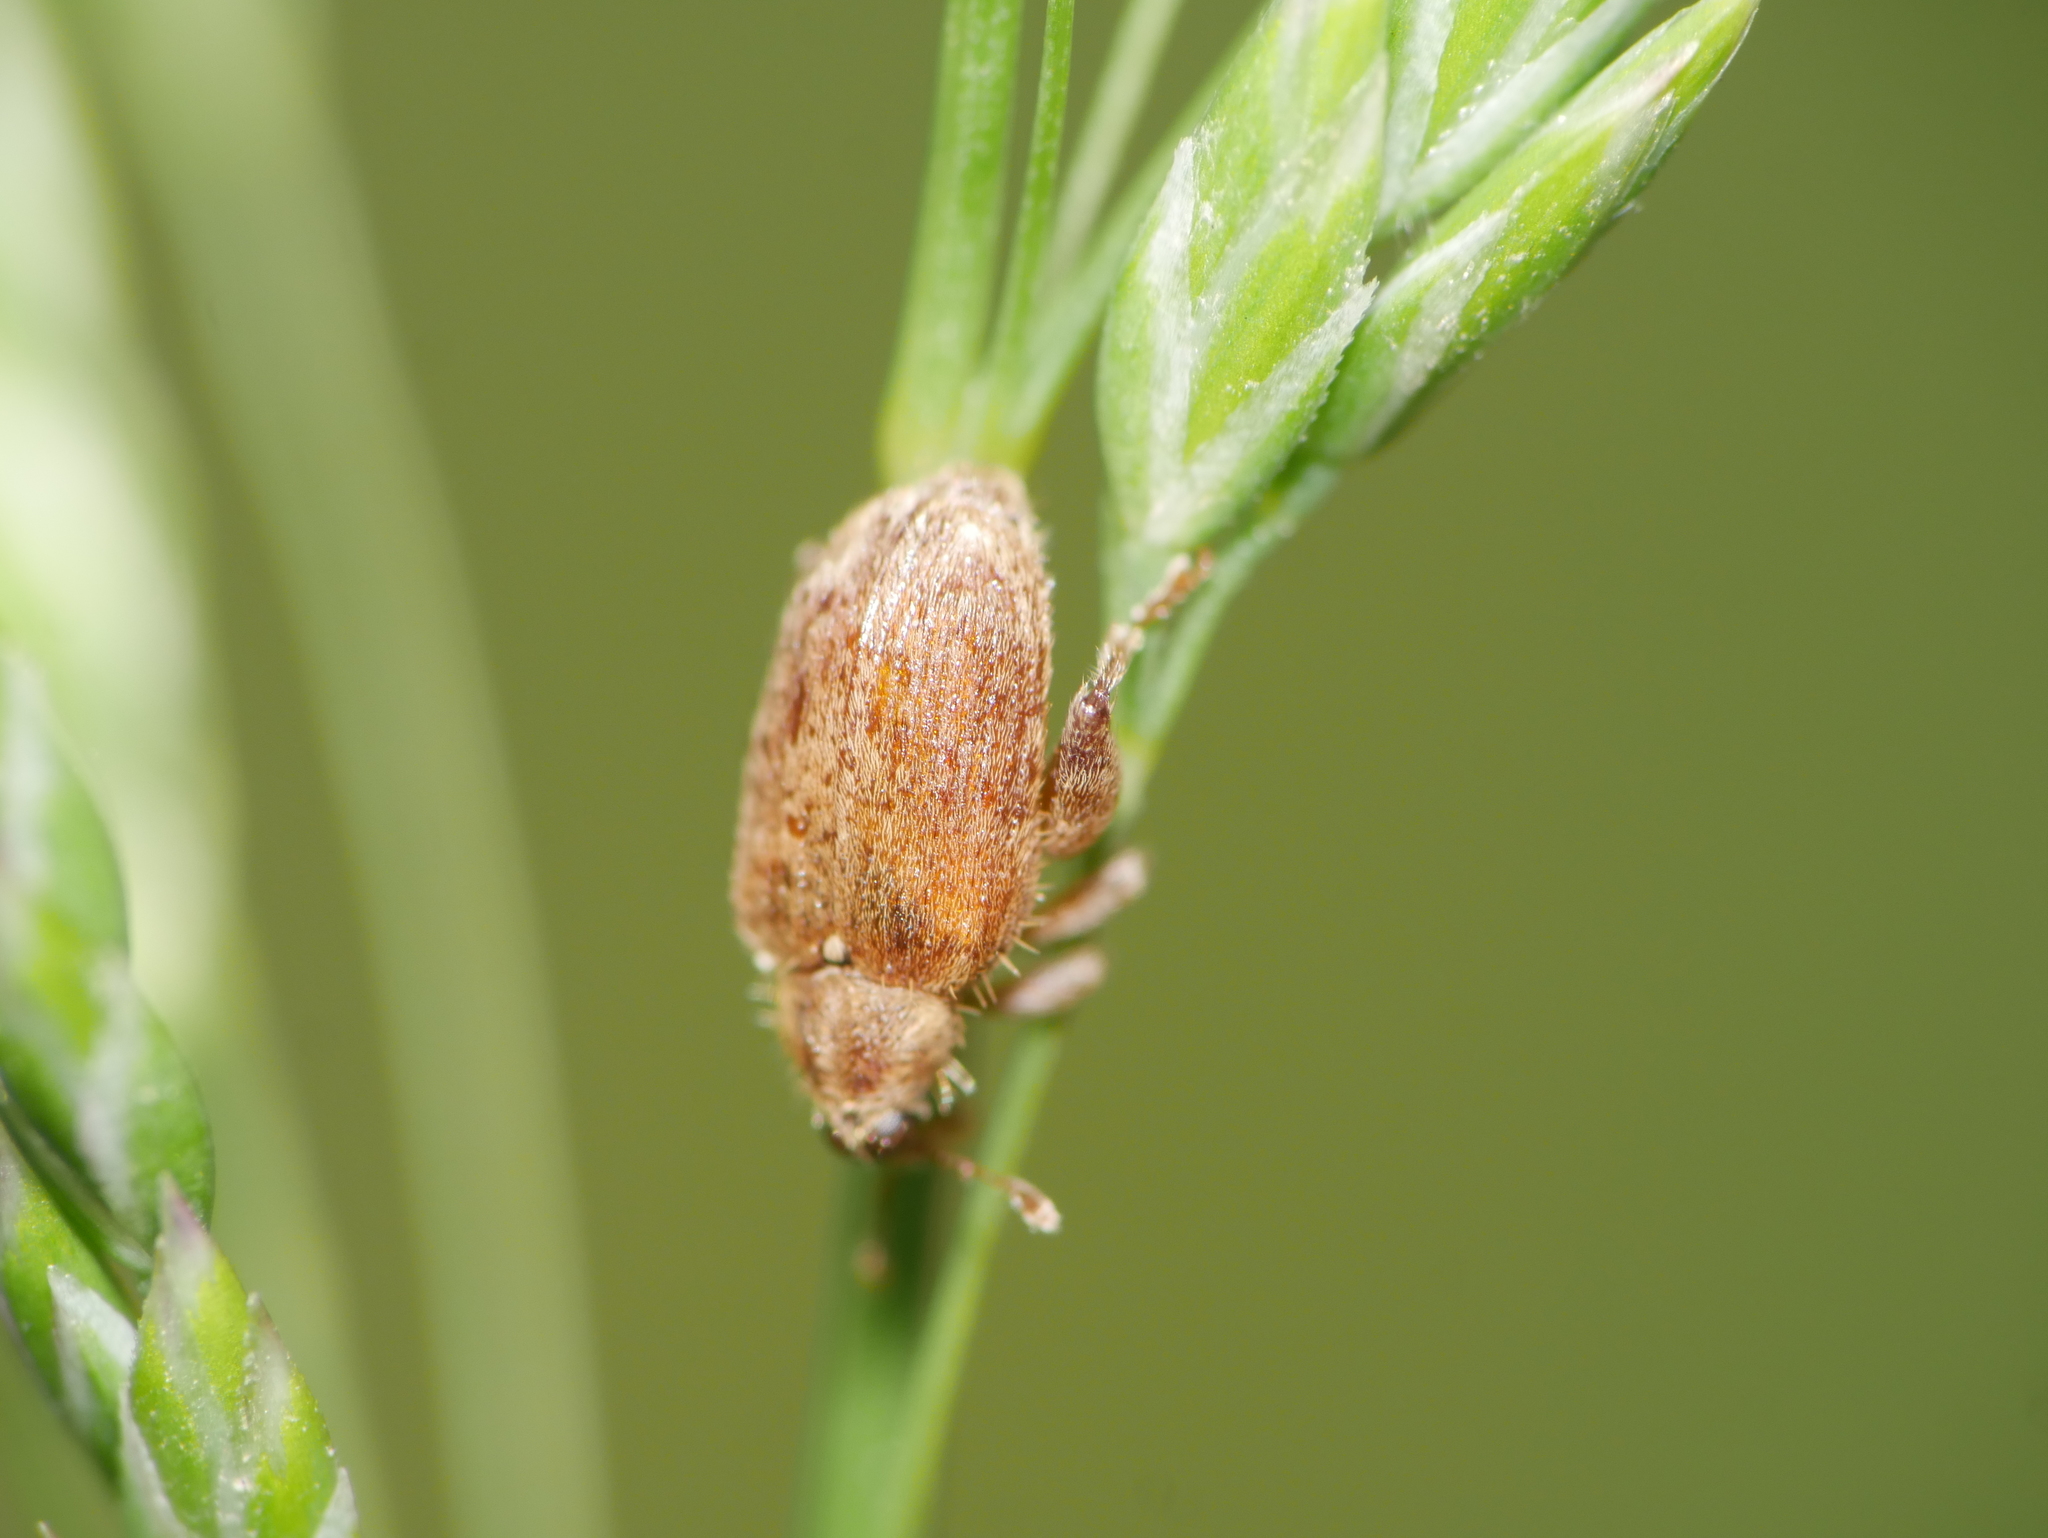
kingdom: Animalia
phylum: Arthropoda
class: Insecta
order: Coleoptera
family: Curculionidae
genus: Orchestes
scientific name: Orchestes quercus
